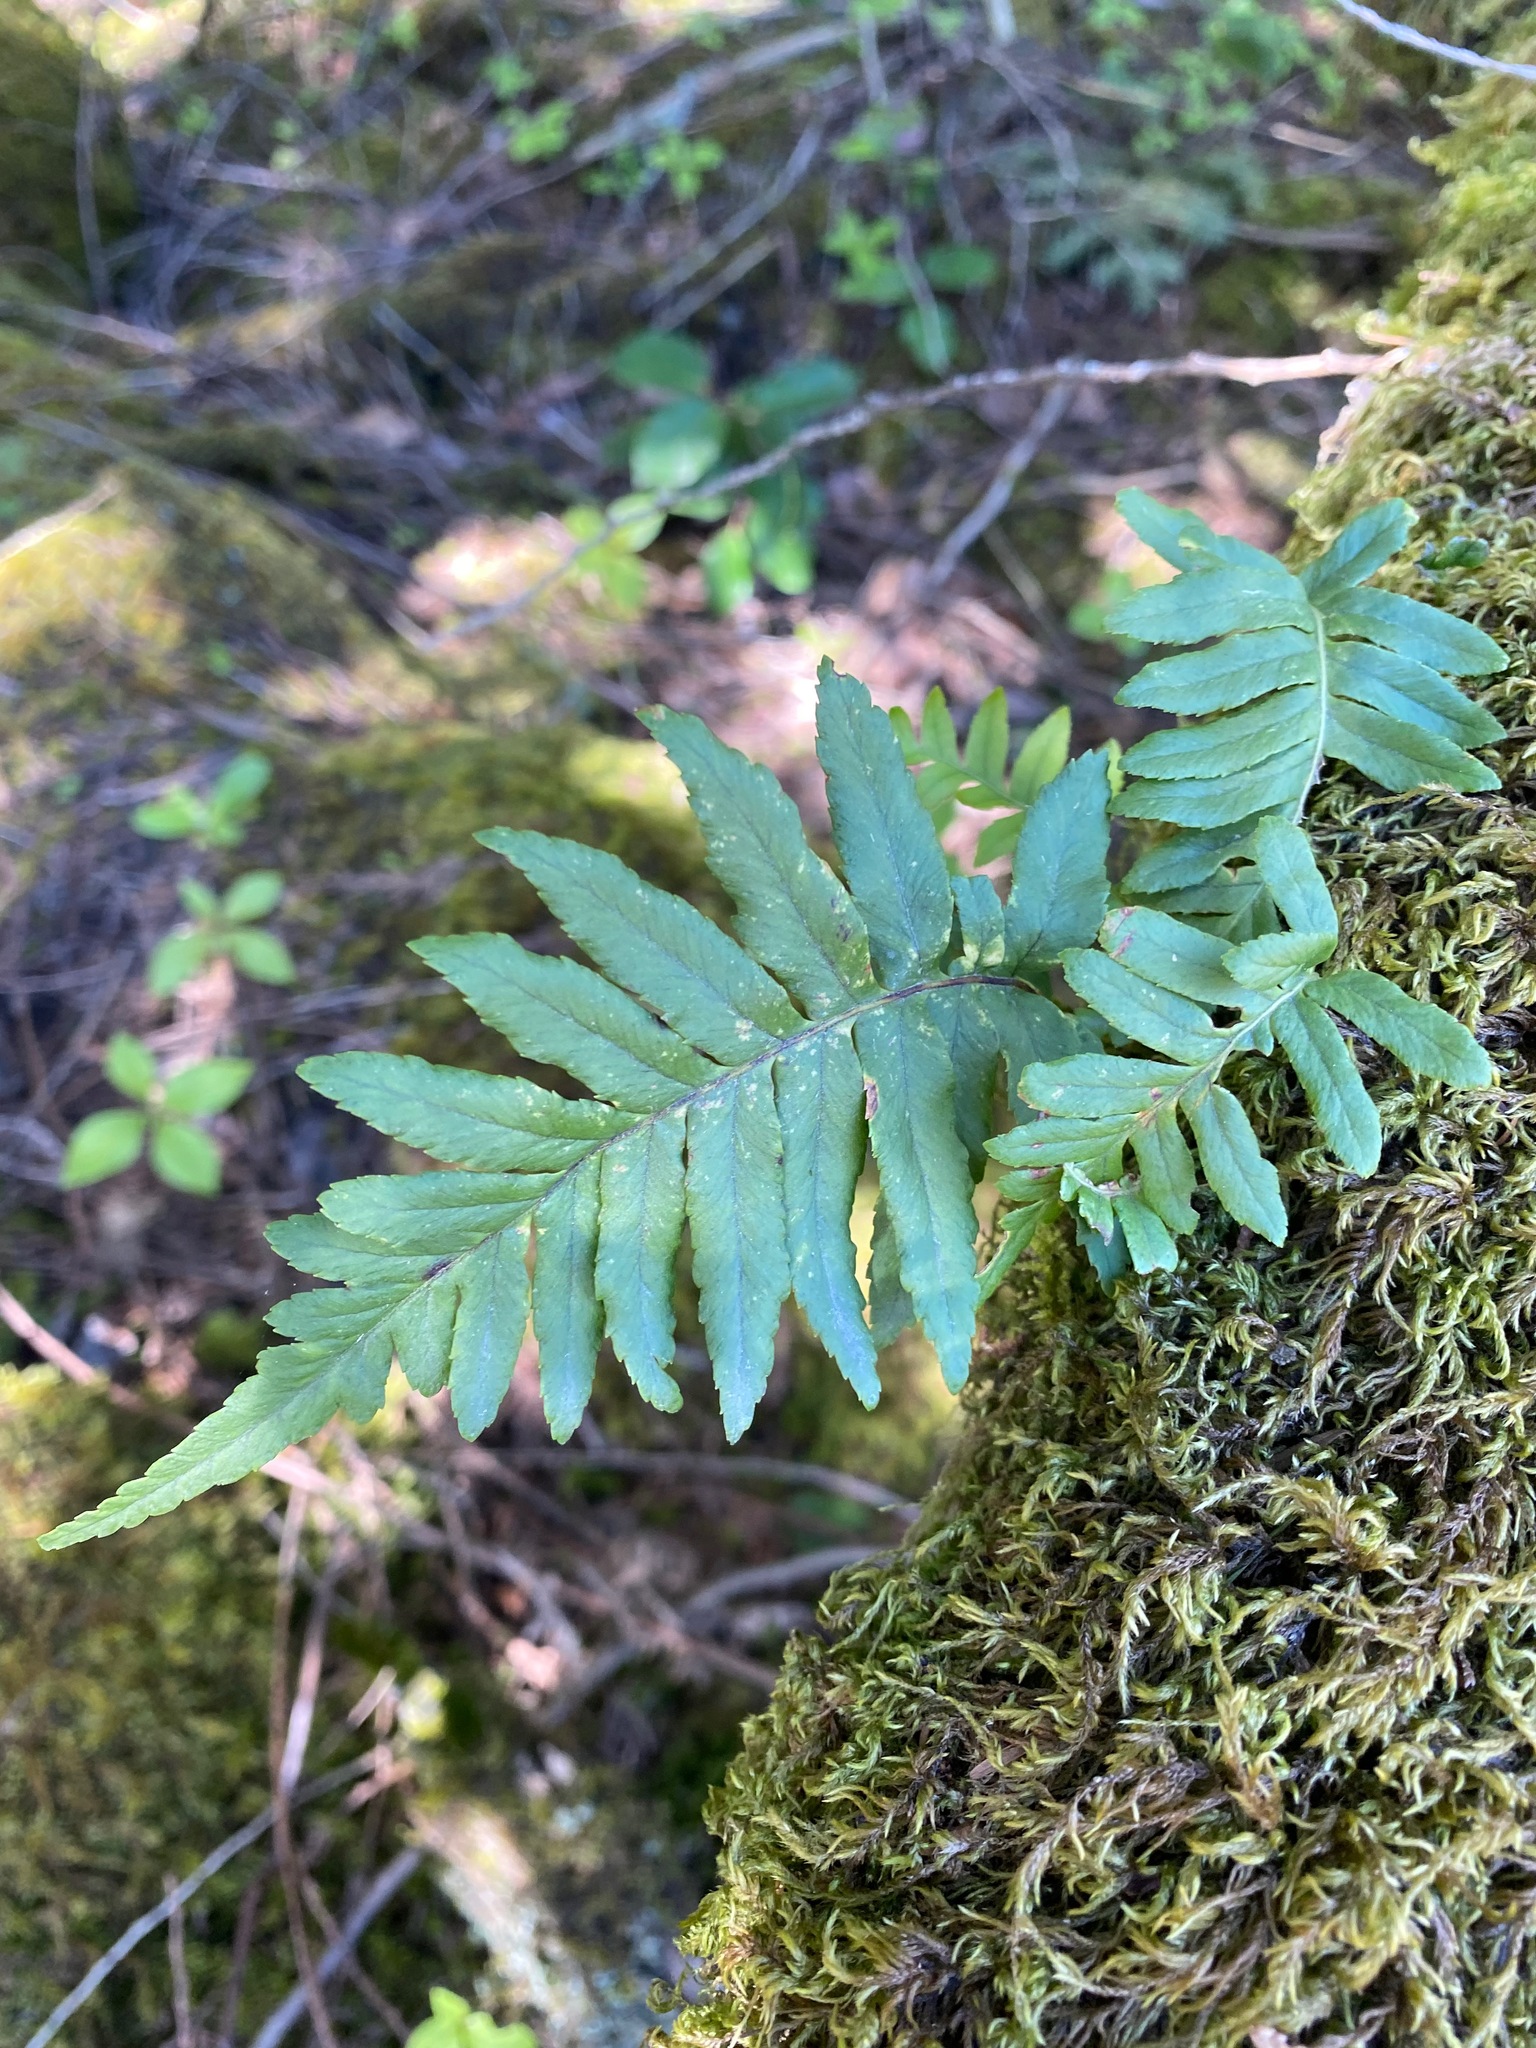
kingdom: Plantae
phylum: Tracheophyta
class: Polypodiopsida
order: Polypodiales
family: Polypodiaceae
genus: Polypodium
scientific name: Polypodium glycyrrhiza
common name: Licorice fern
